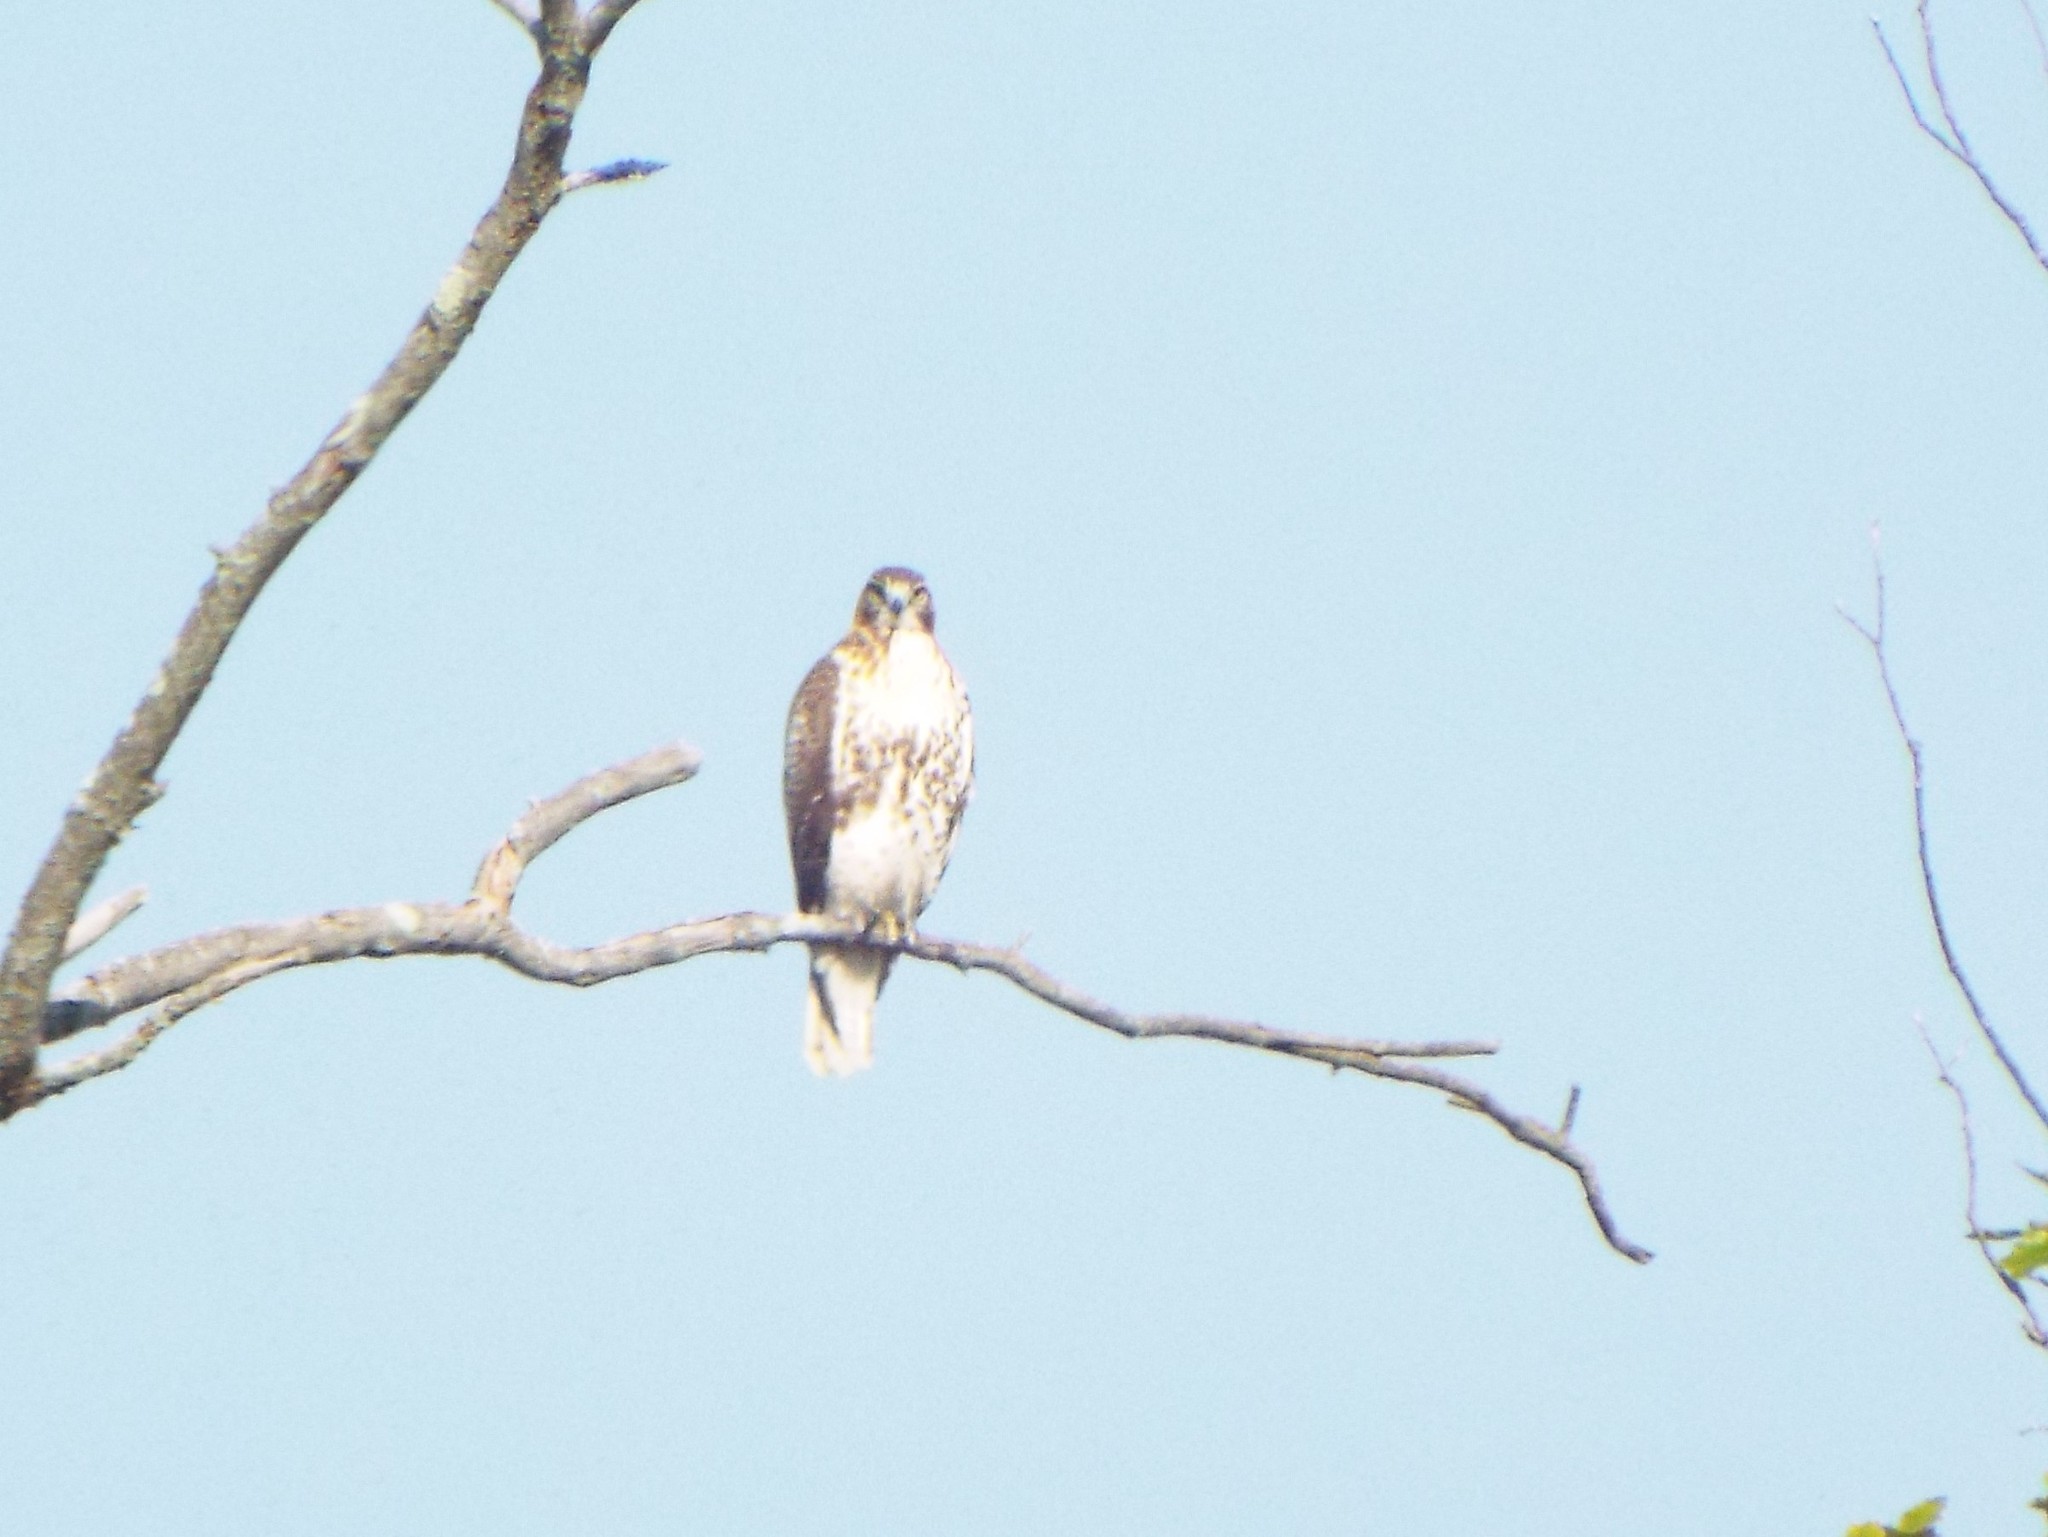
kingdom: Animalia
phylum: Chordata
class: Aves
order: Accipitriformes
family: Accipitridae
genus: Buteo
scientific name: Buteo jamaicensis
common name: Red-tailed hawk
